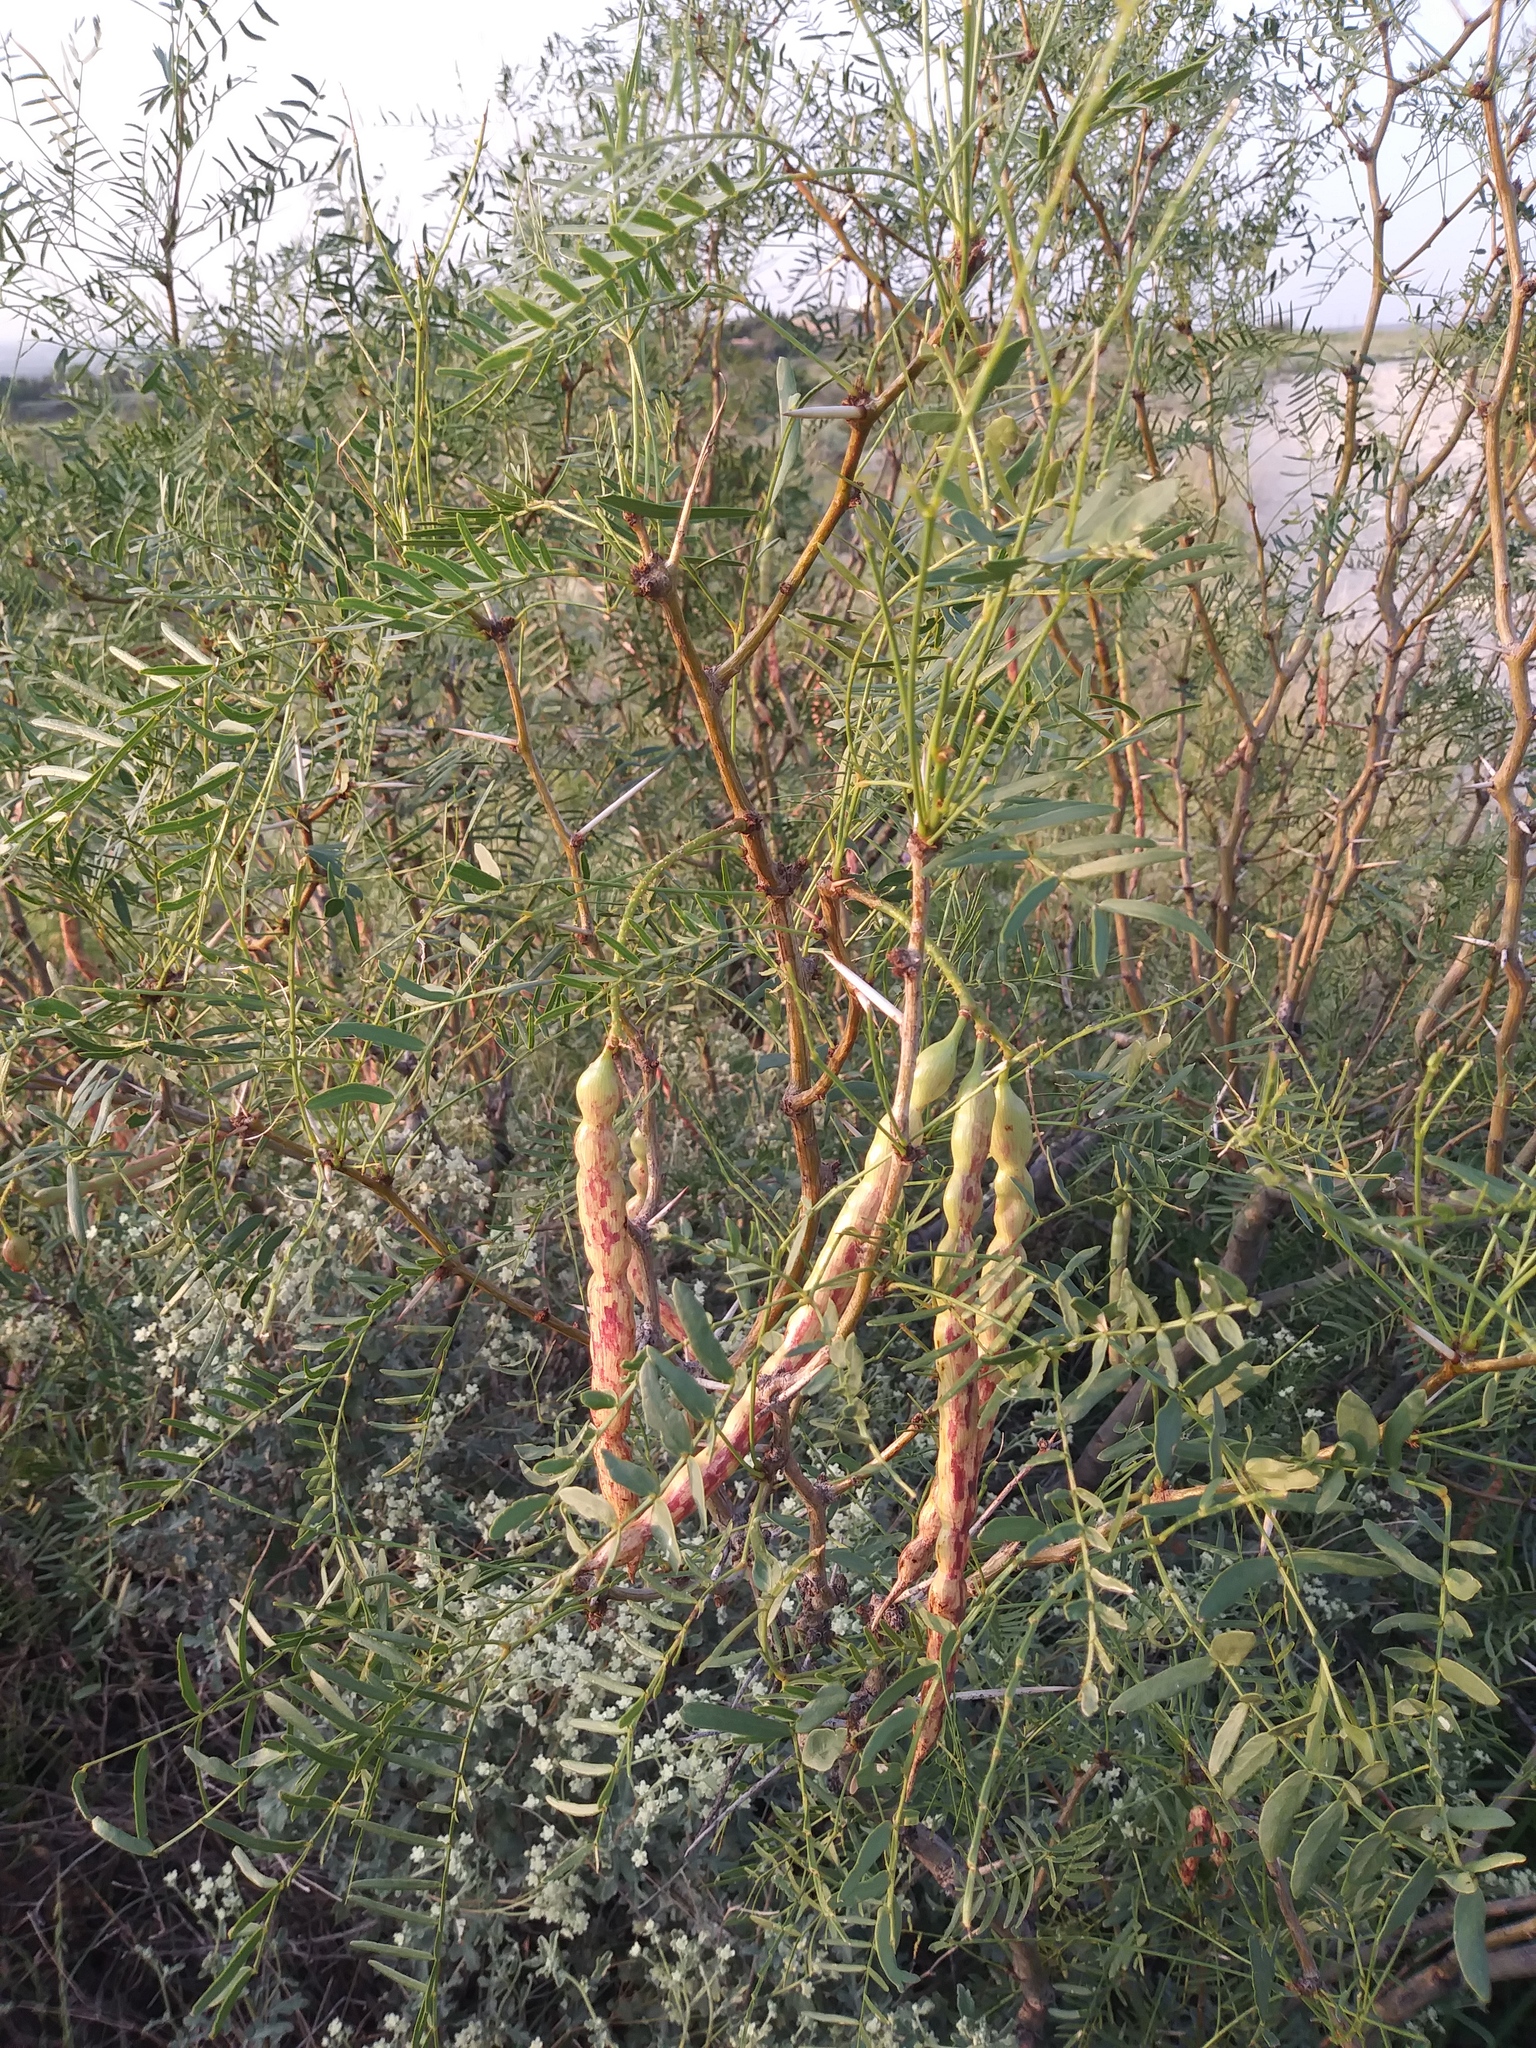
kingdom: Plantae
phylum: Tracheophyta
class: Magnoliopsida
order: Fabales
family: Fabaceae
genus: Prosopis
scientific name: Prosopis glandulosa
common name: Honey mesquite
